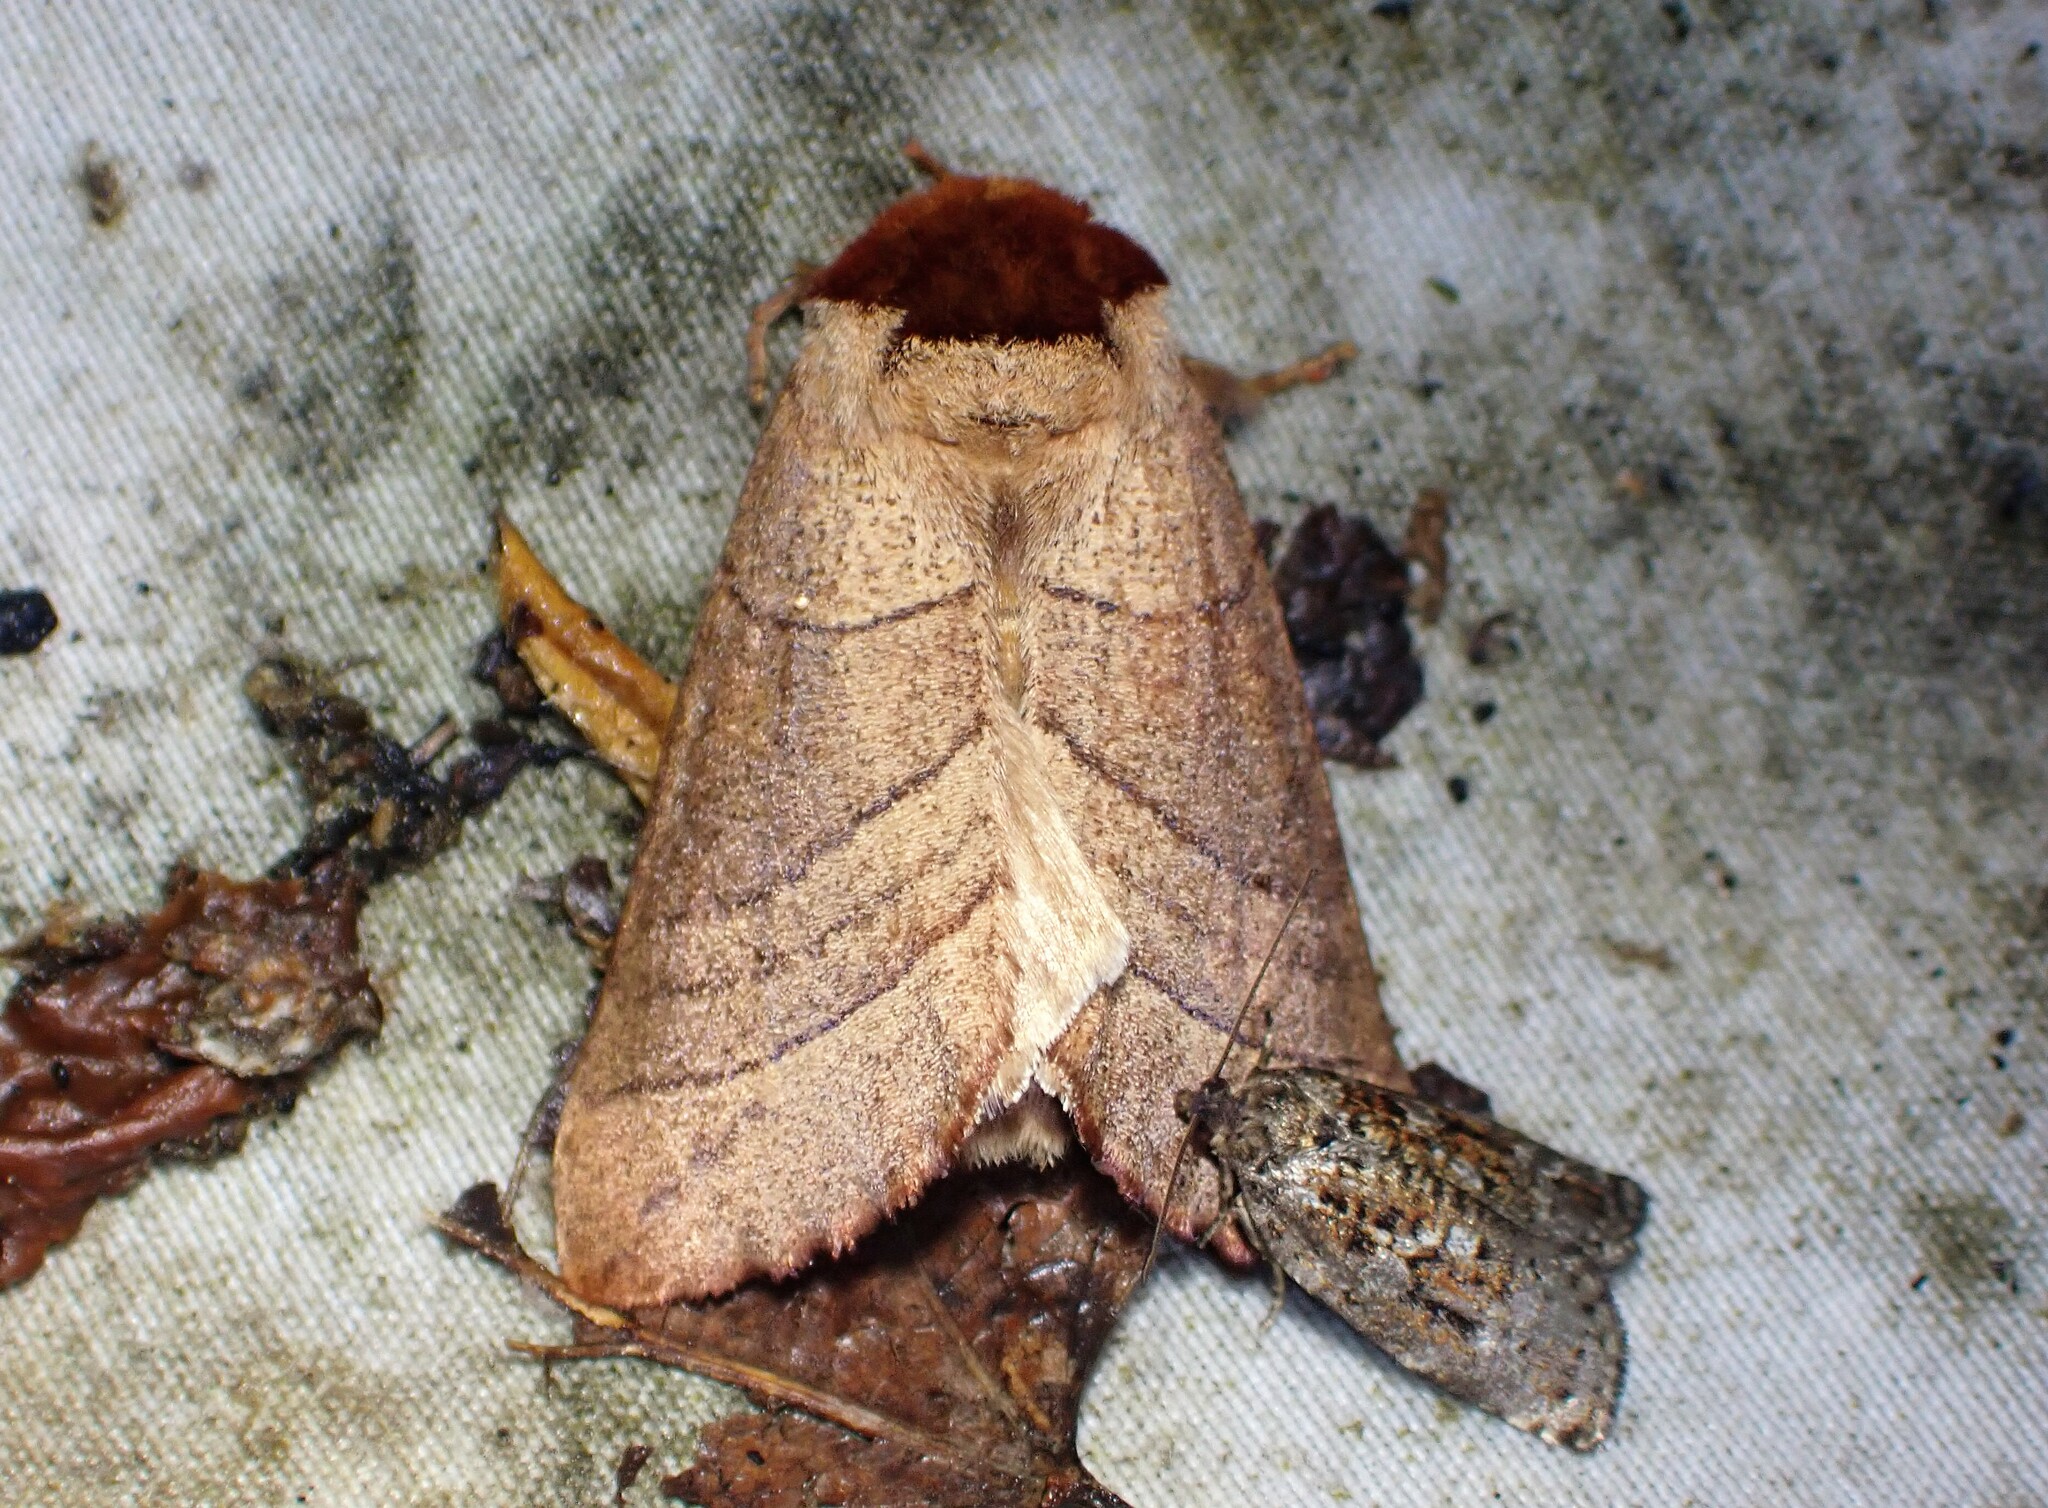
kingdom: Animalia
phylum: Arthropoda
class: Insecta
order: Lepidoptera
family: Notodontidae
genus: Datana
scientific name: Datana ministra
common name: Yellow-necked caterpillar moth
